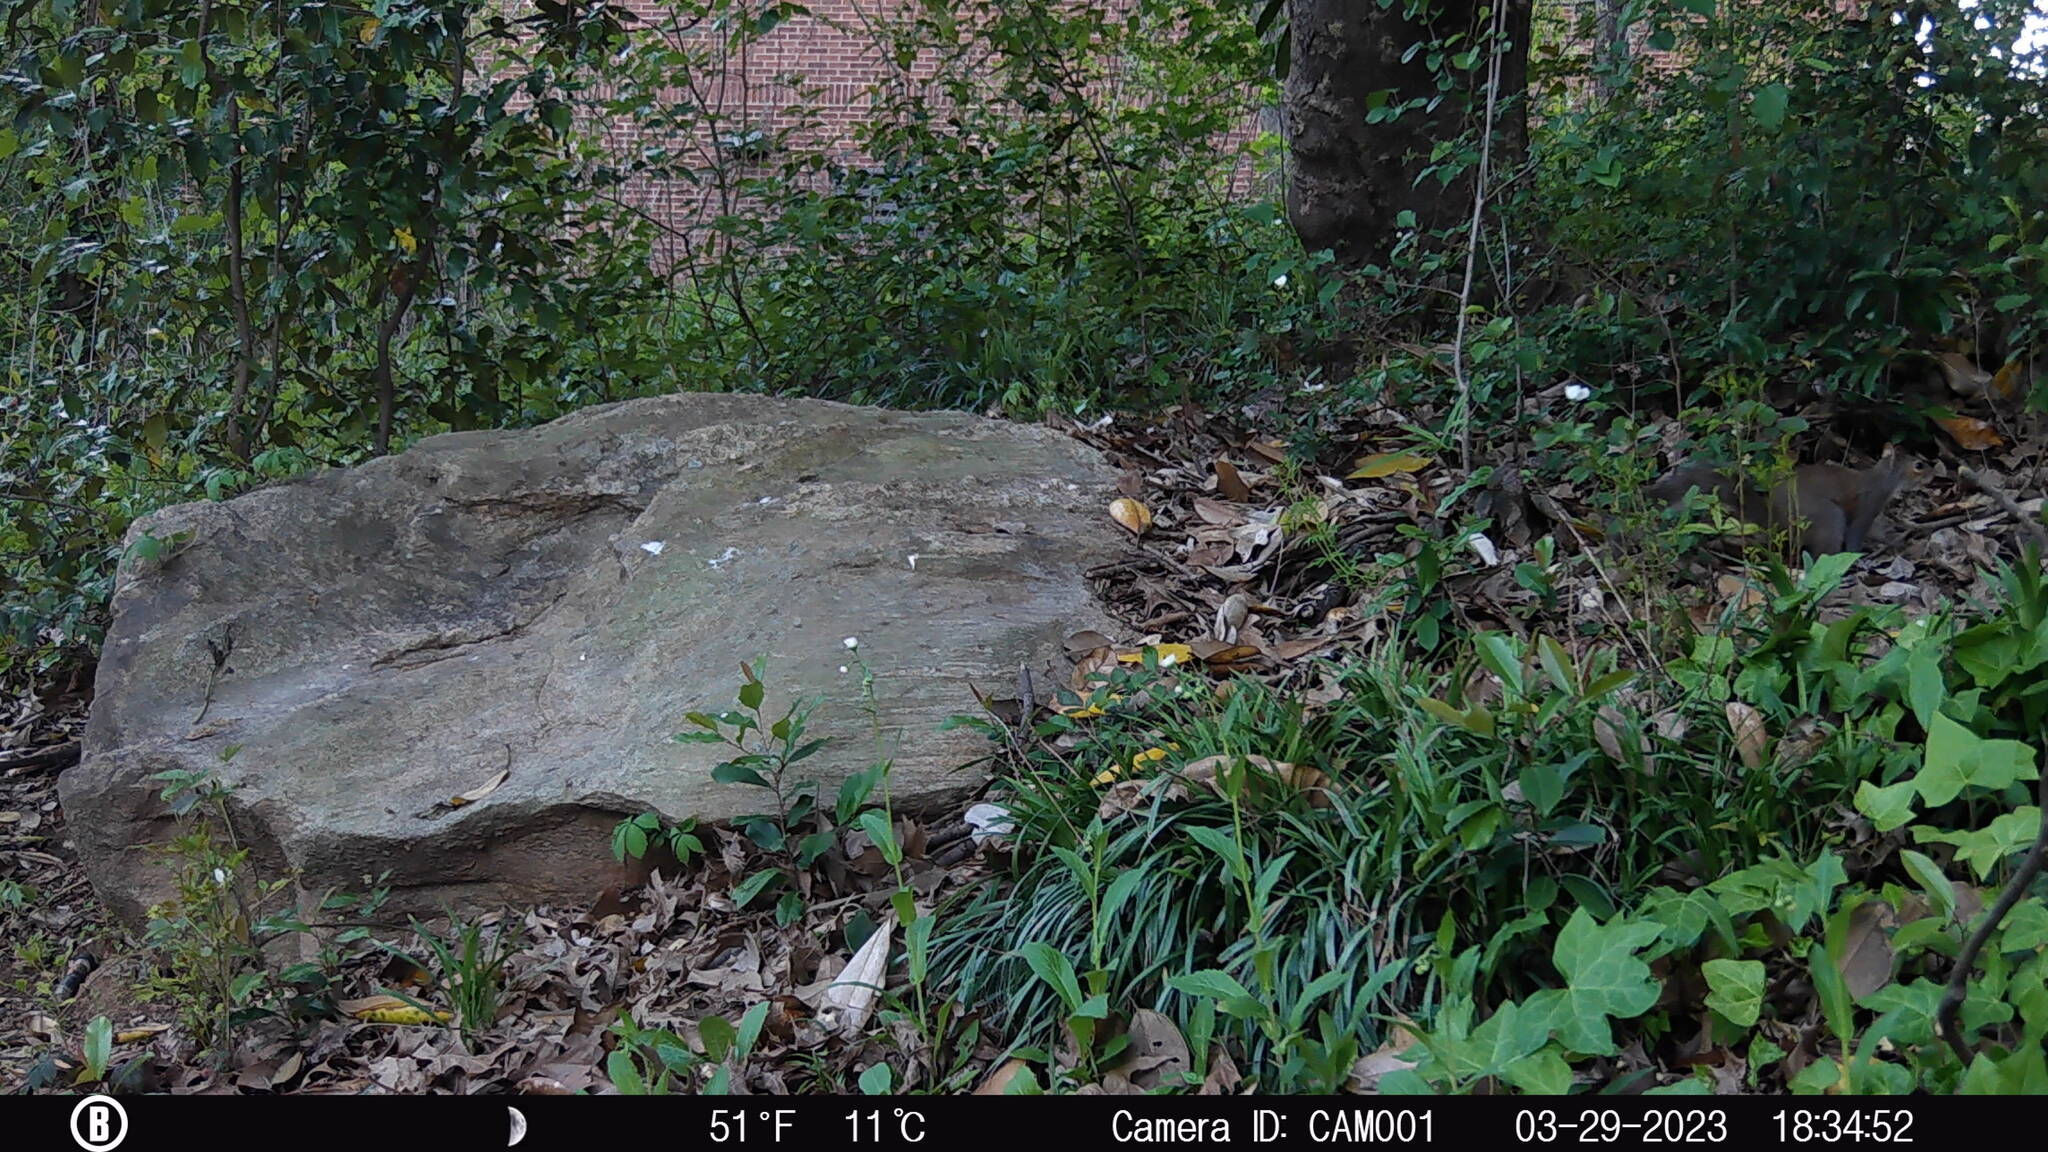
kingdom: Animalia
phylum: Chordata
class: Mammalia
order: Rodentia
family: Sciuridae
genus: Sciurus
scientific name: Sciurus carolinensis
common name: Eastern gray squirrel
